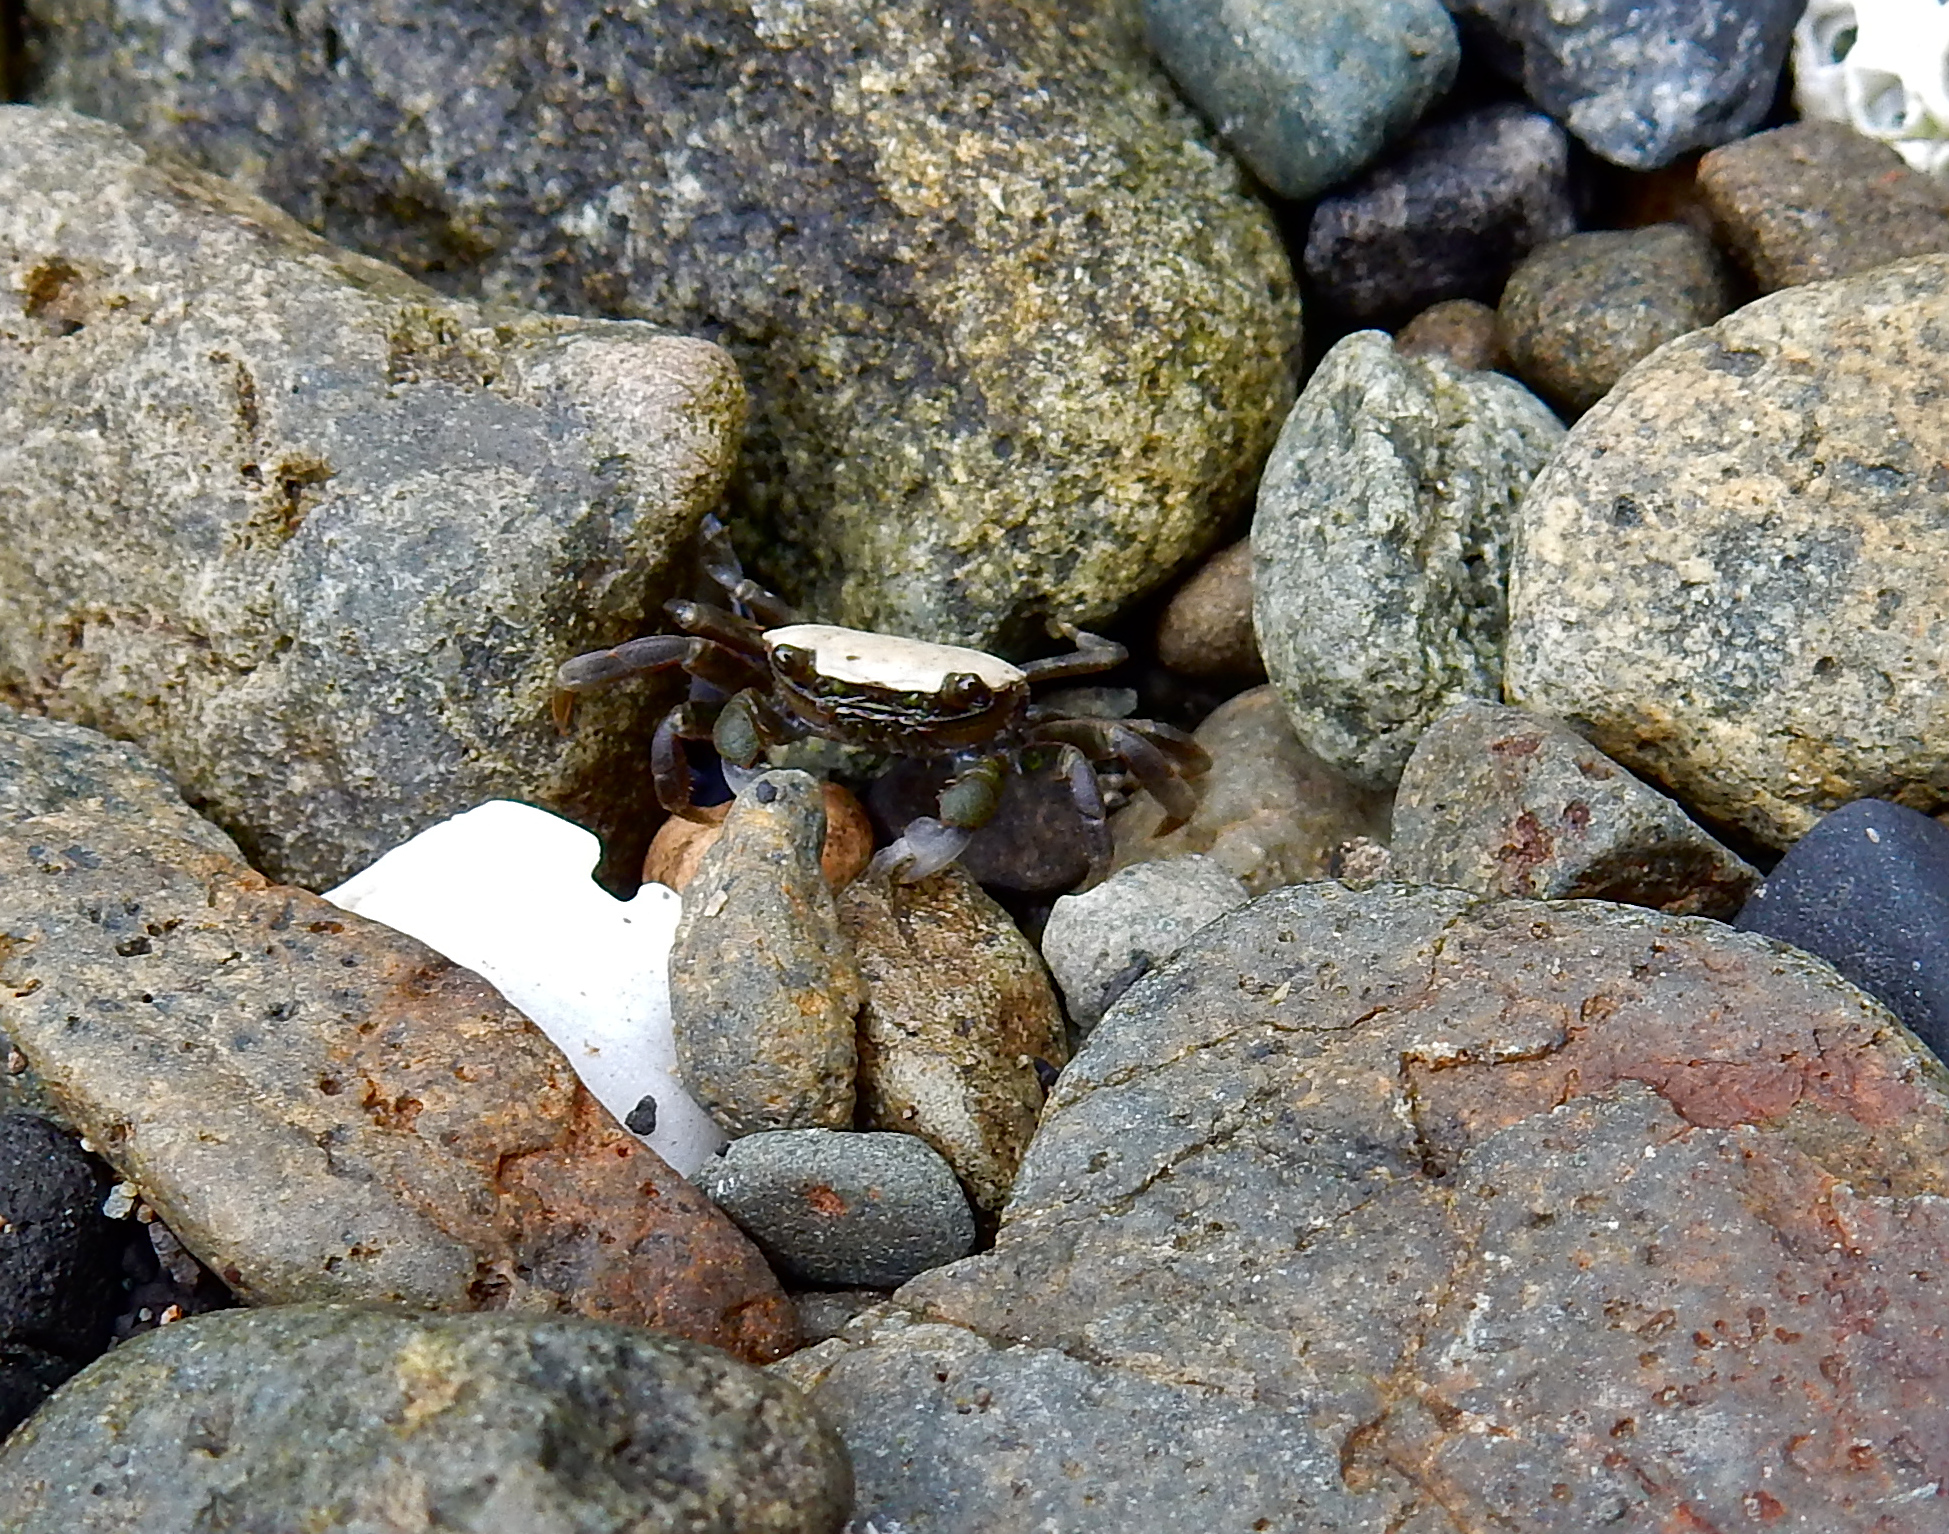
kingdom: Animalia
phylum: Arthropoda
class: Malacostraca
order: Decapoda
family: Varunidae
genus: Hemigrapsus
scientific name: Hemigrapsus nudus
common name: Purple shore crab
